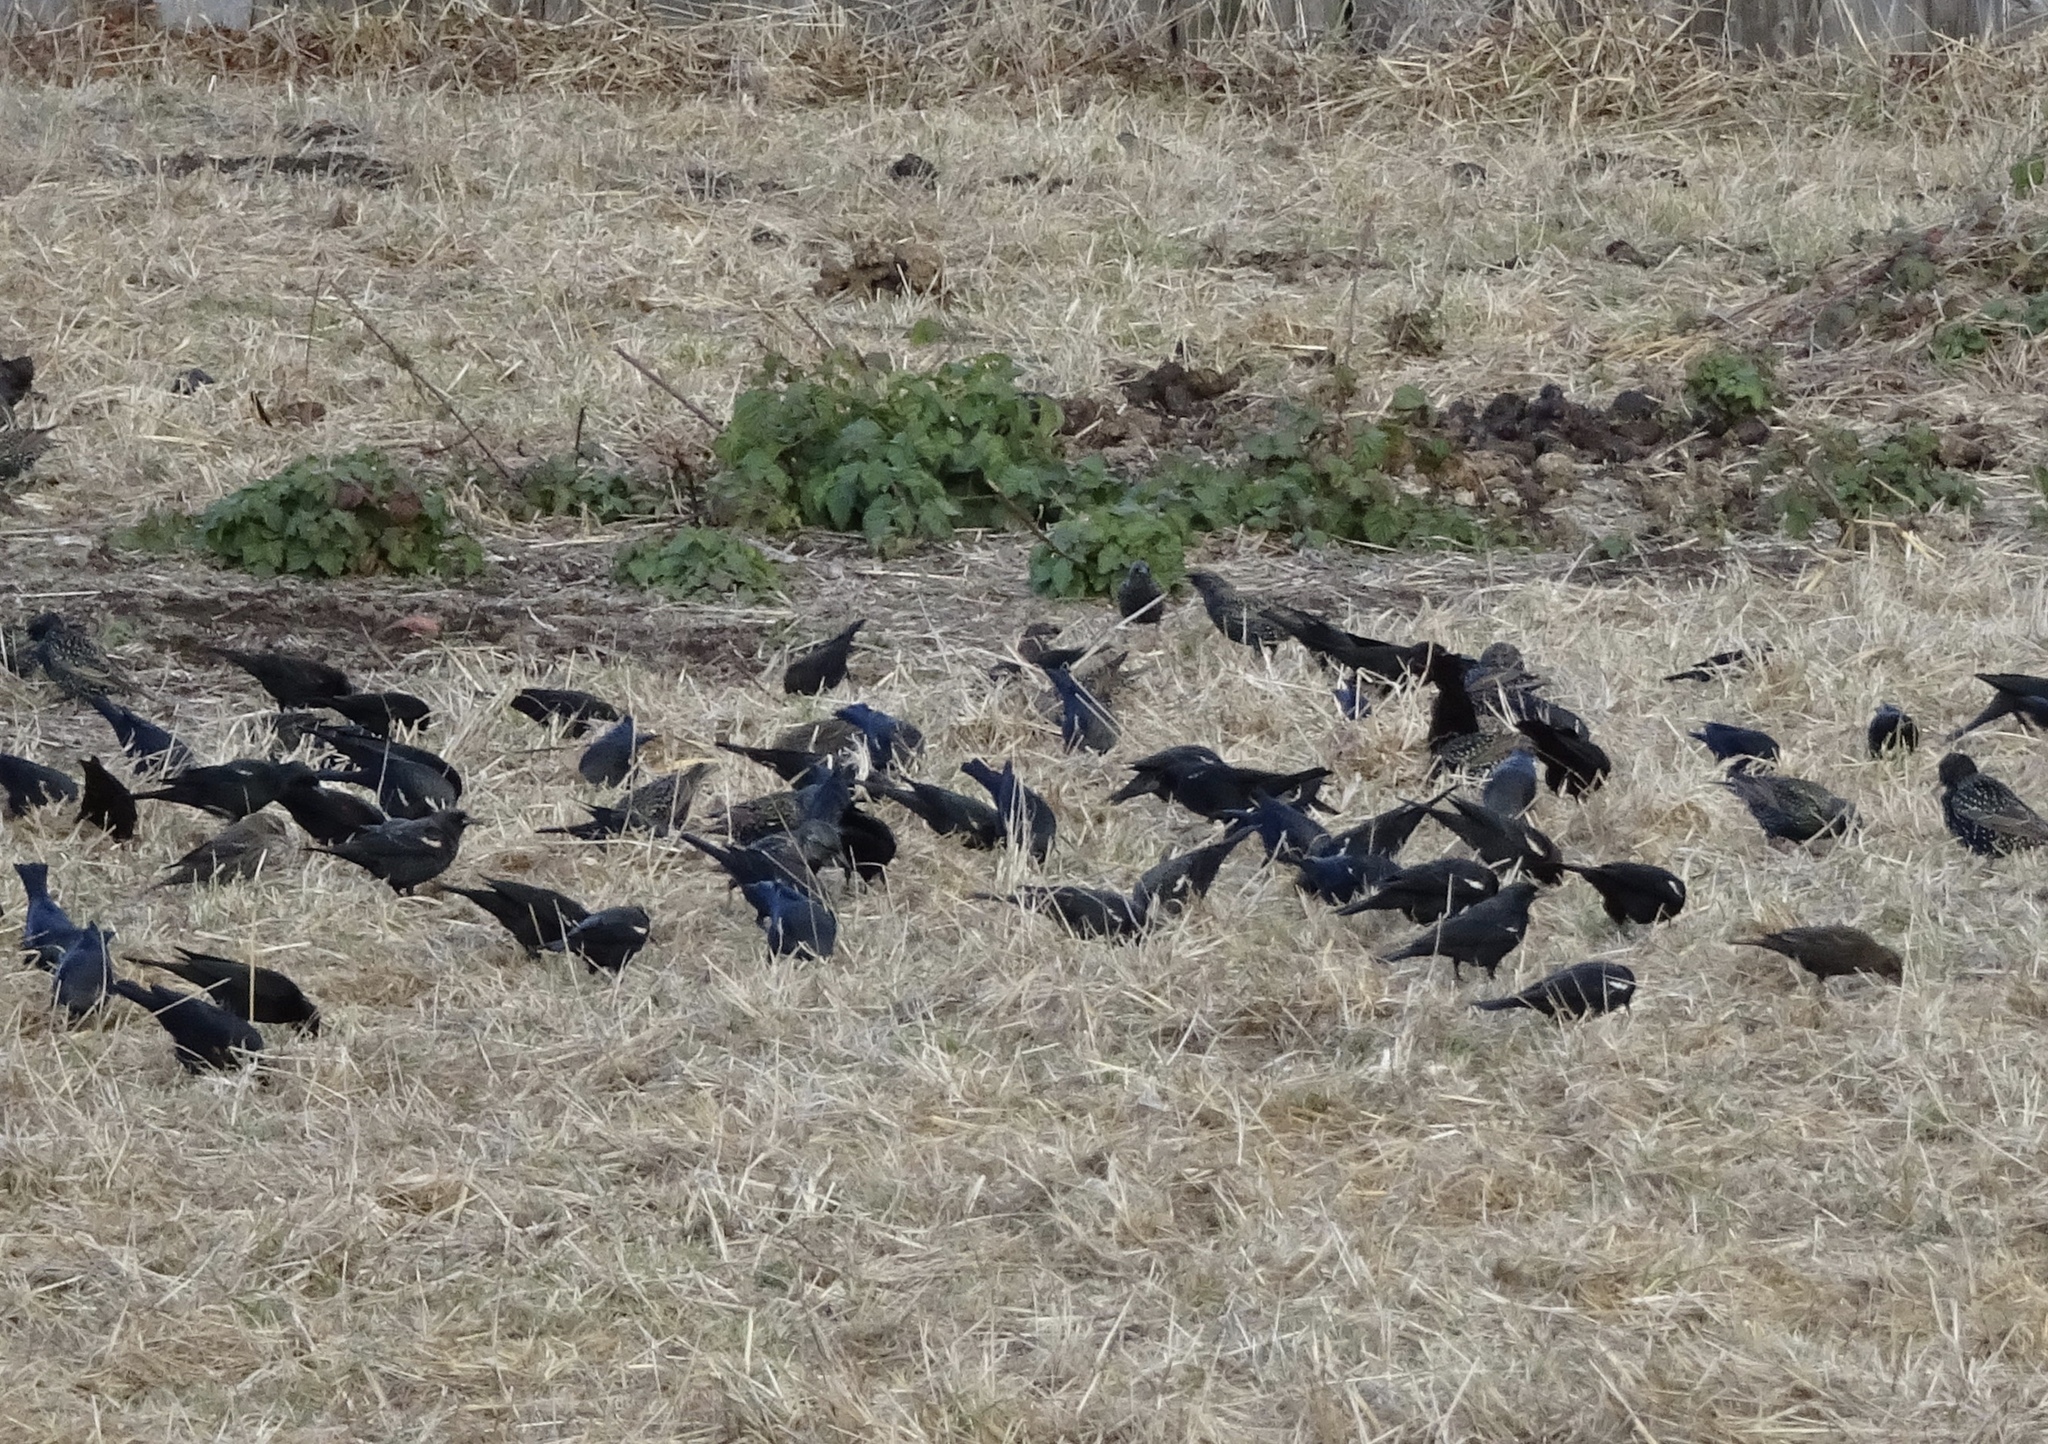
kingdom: Animalia
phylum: Chordata
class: Aves
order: Passeriformes
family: Icteridae
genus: Agelaius
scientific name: Agelaius tricolor
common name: Tricolored blackbird
